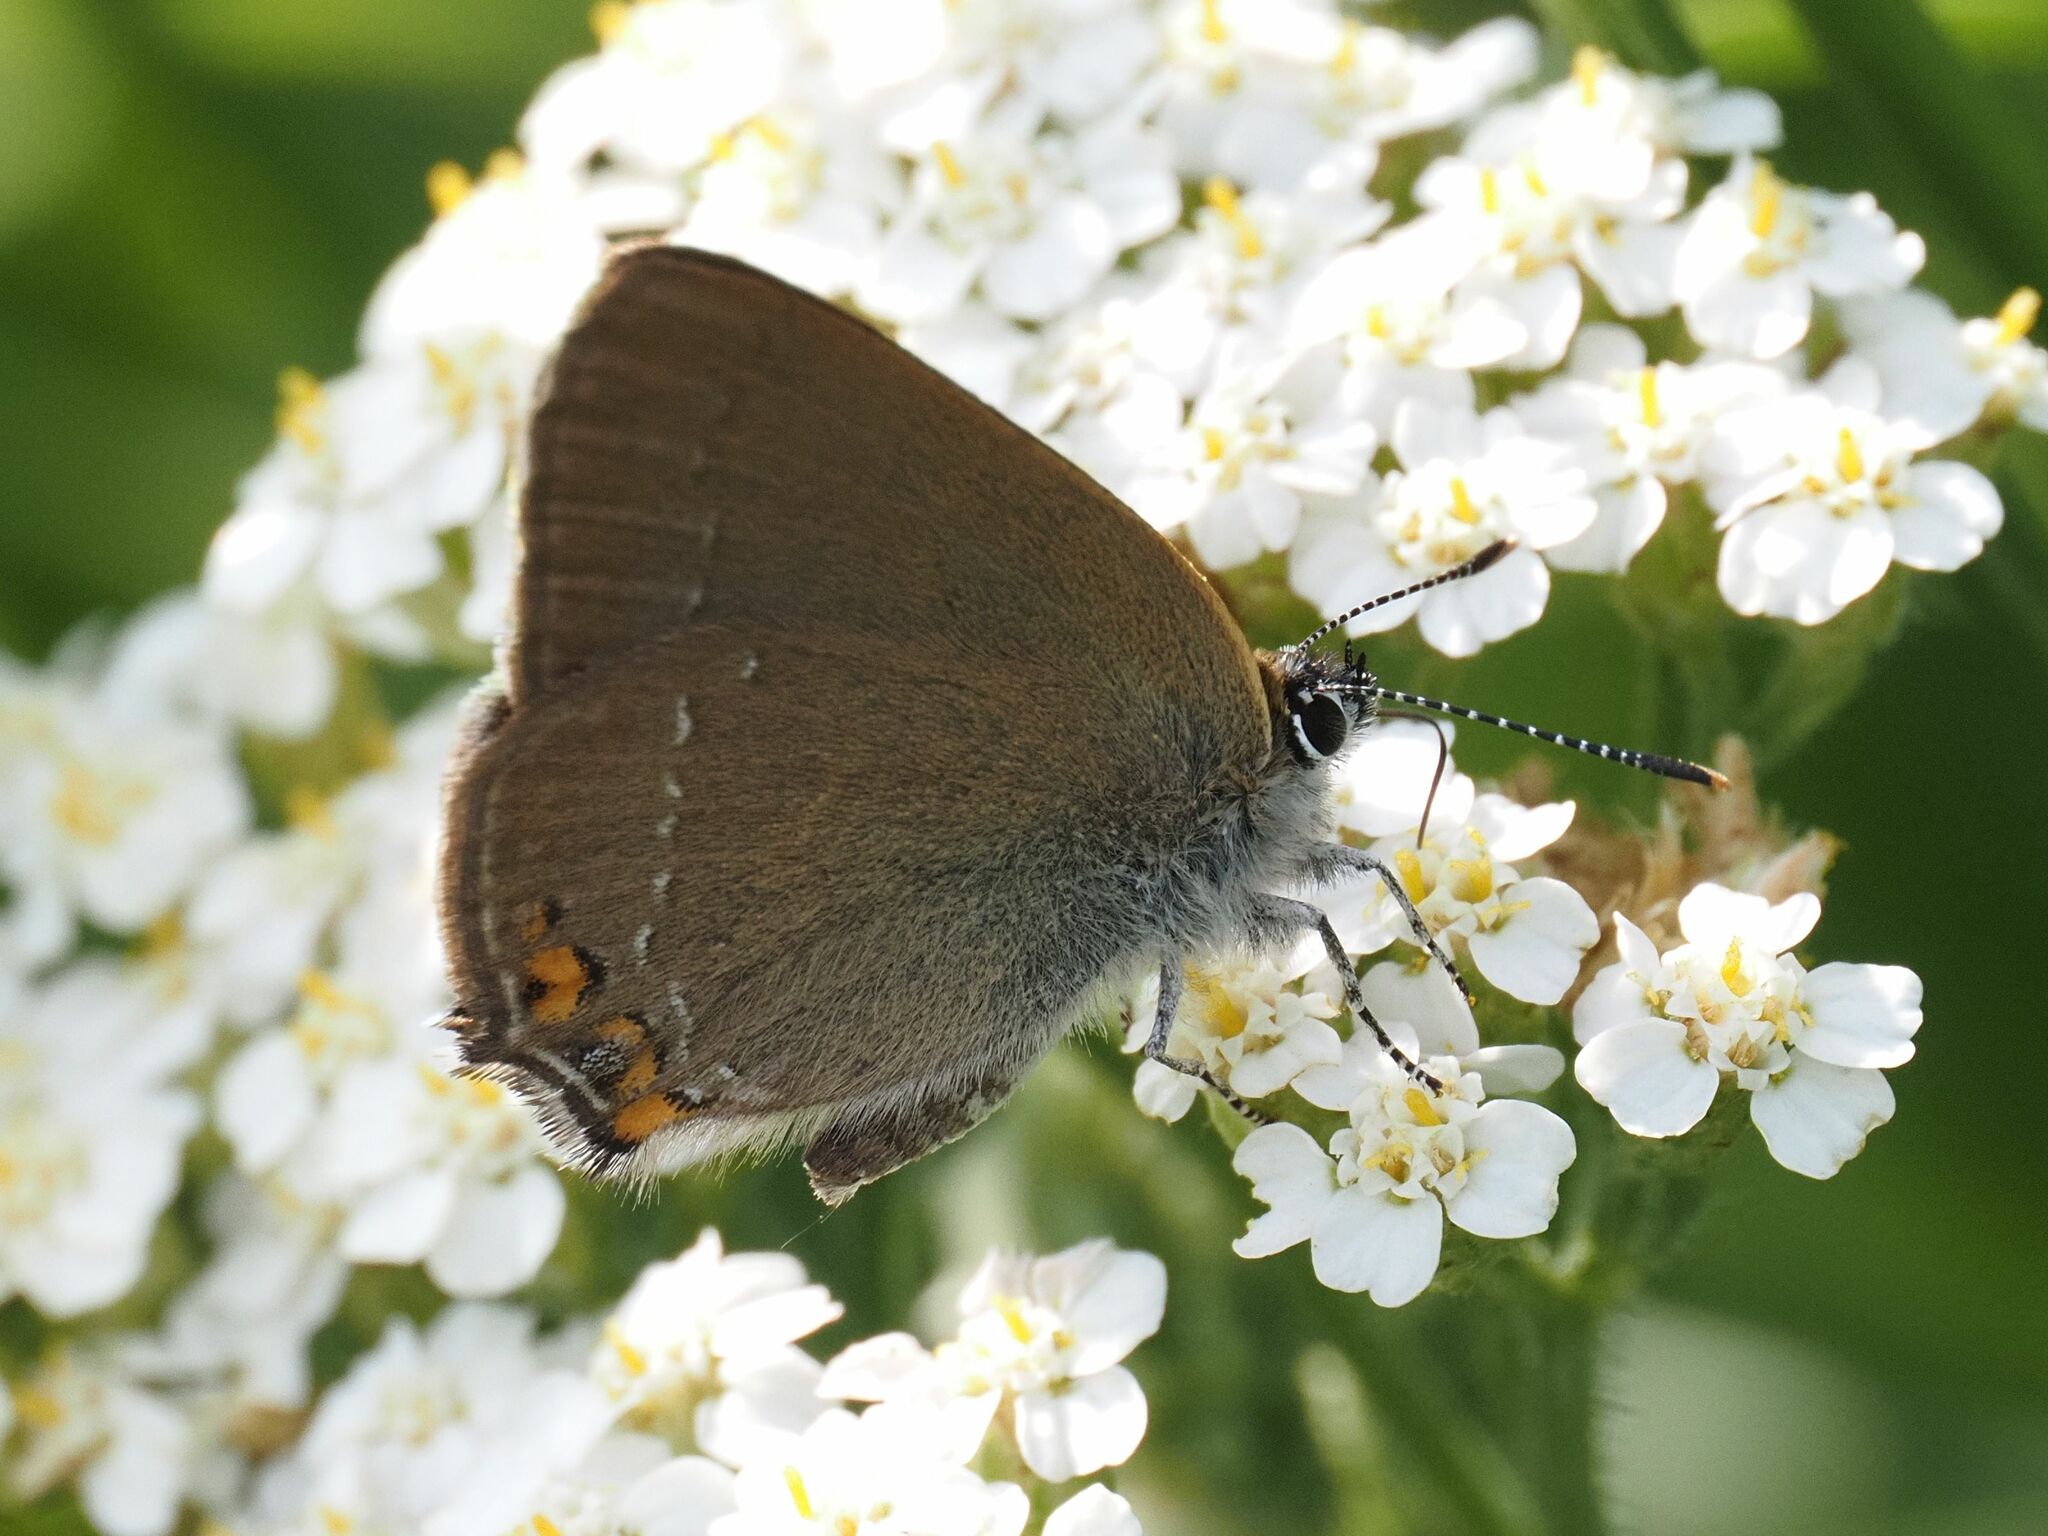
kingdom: Animalia
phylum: Arthropoda
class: Insecta
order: Lepidoptera
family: Lycaenidae
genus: Strymon
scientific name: Strymon acaciae
